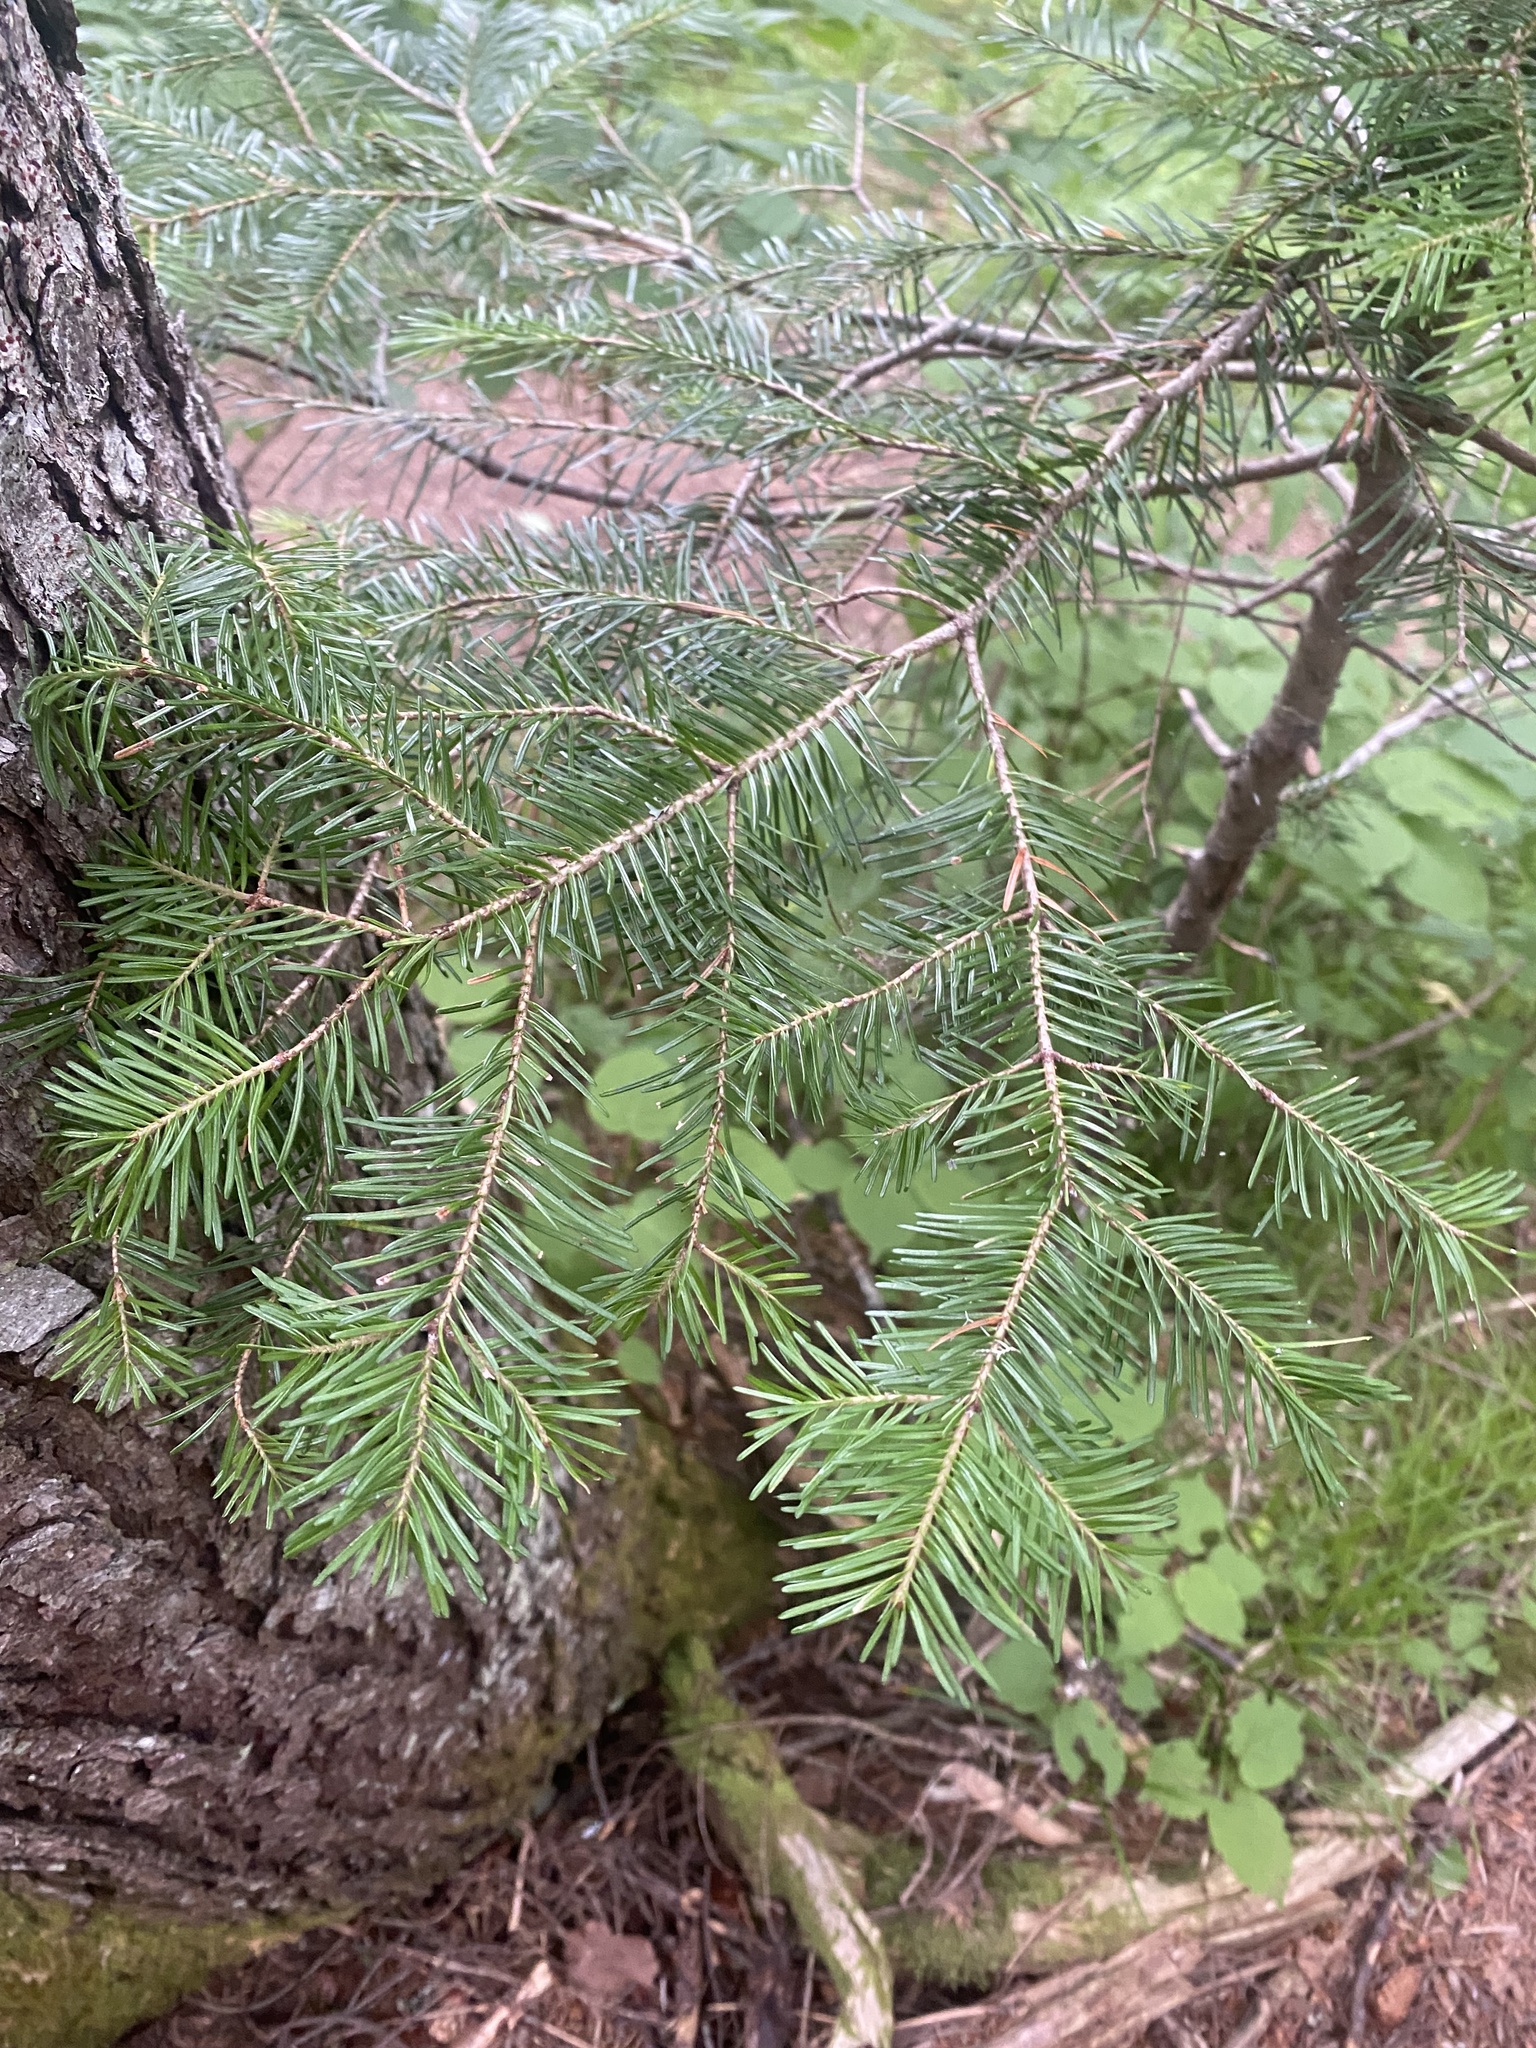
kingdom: Plantae
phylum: Tracheophyta
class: Pinopsida
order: Pinales
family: Pinaceae
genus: Abies
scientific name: Abies sachalinensis
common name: Sakhalin fir
